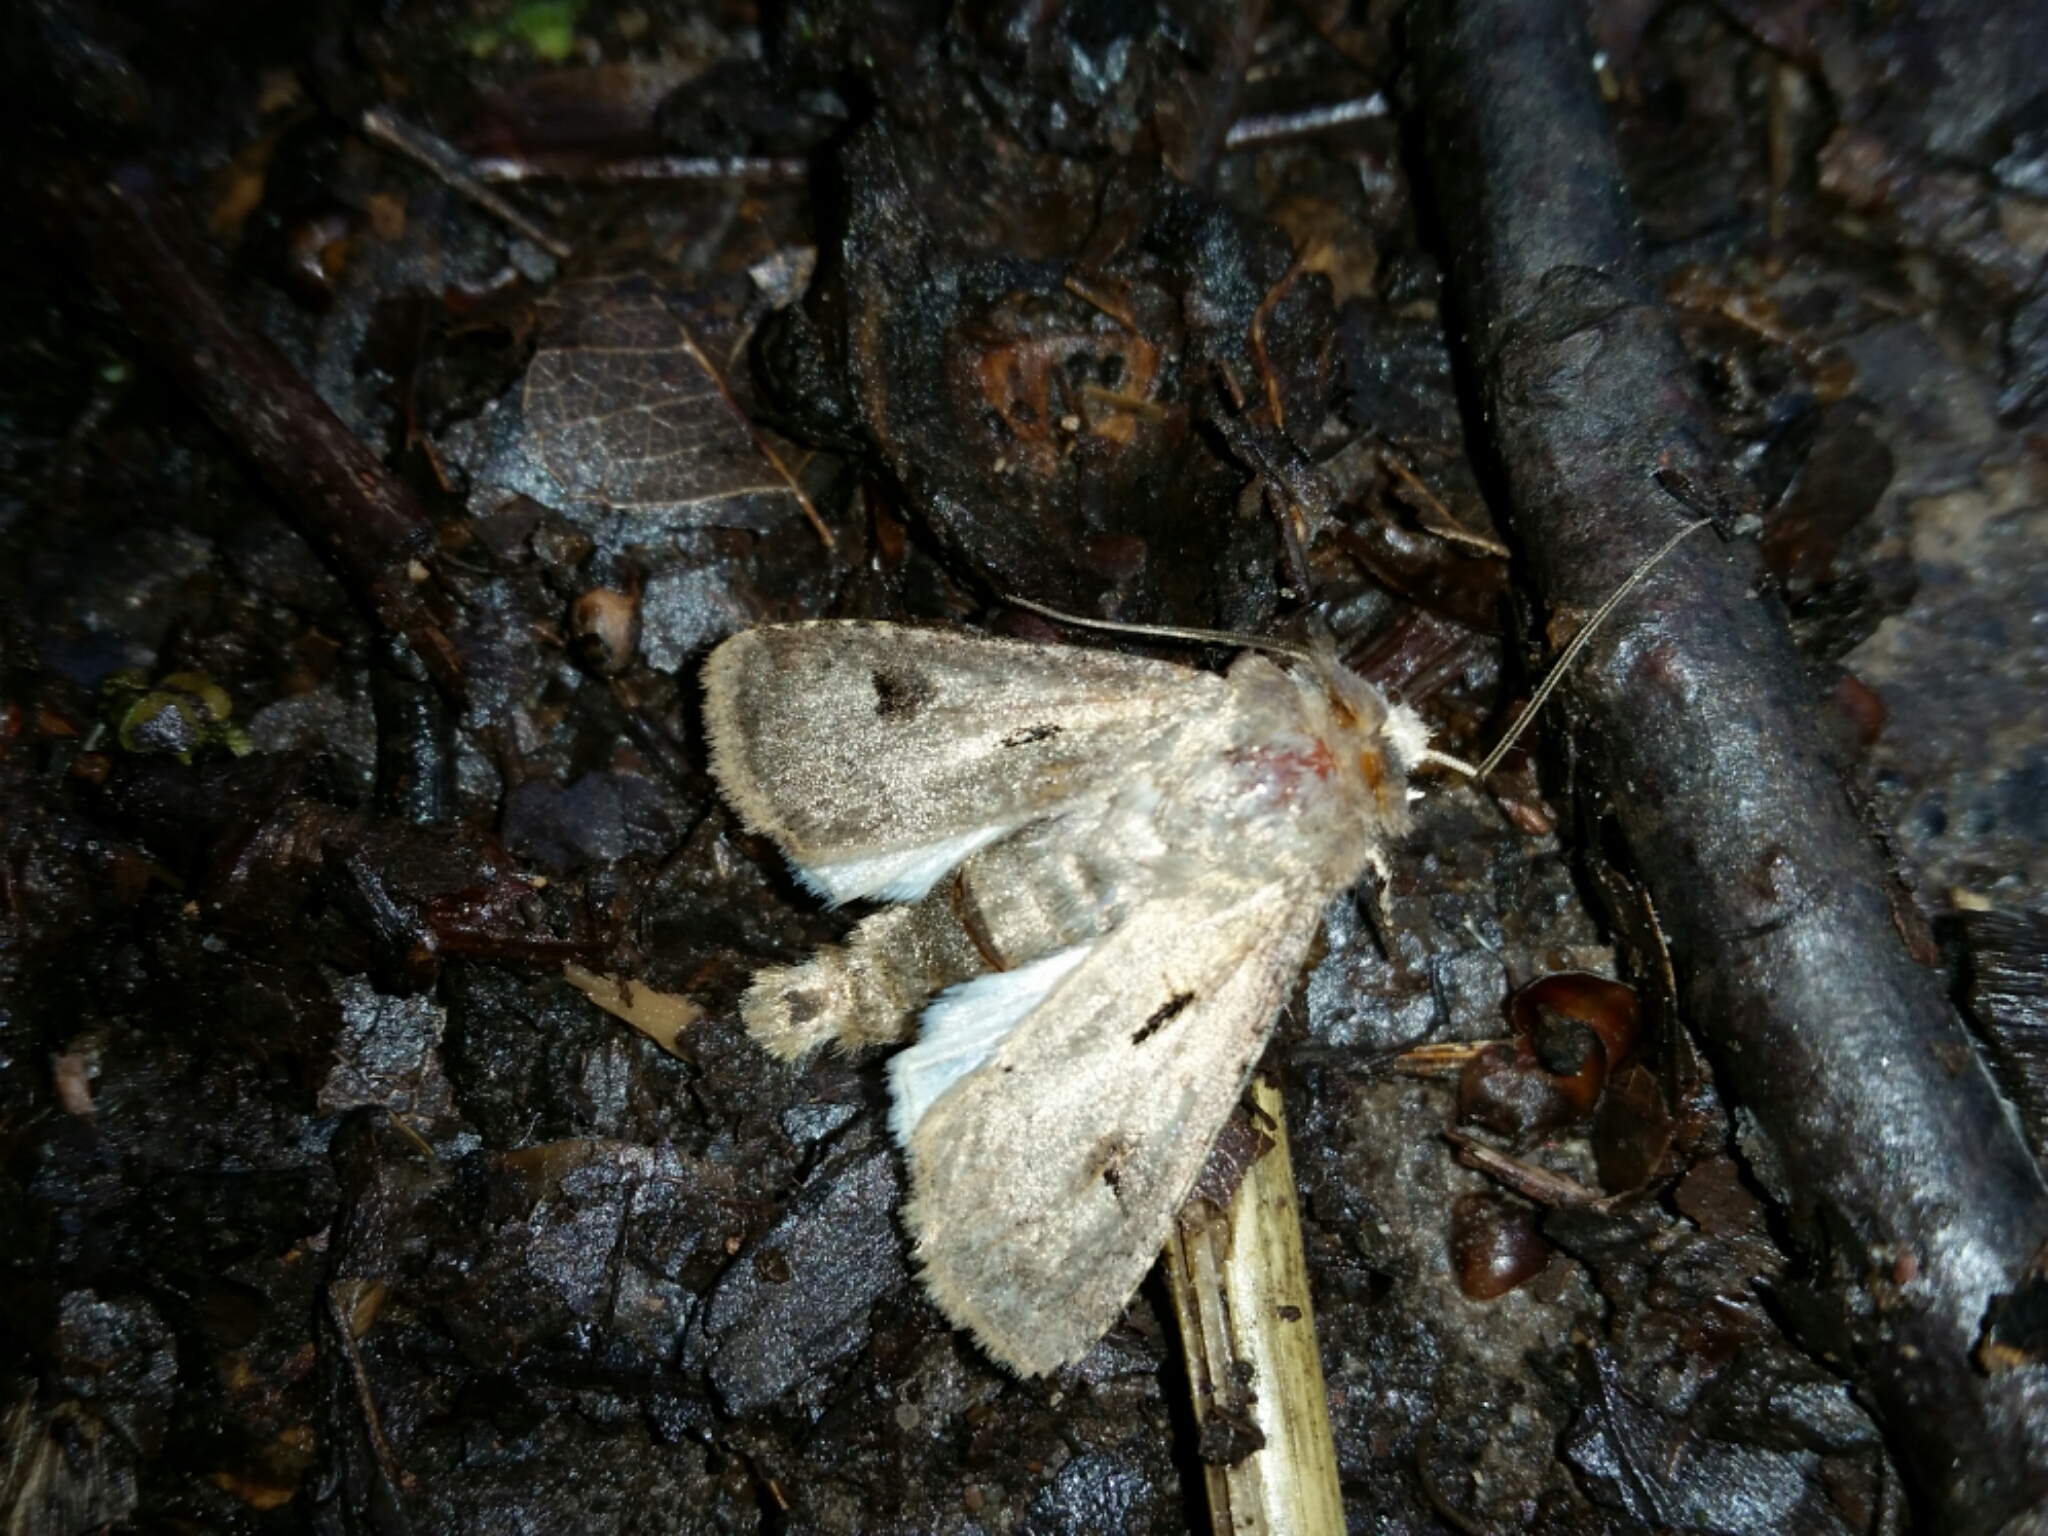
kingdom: Animalia
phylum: Arthropoda
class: Insecta
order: Lepidoptera
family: Noctuidae
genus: Agrotis
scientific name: Agrotis exclamationis
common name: Heart and dart
